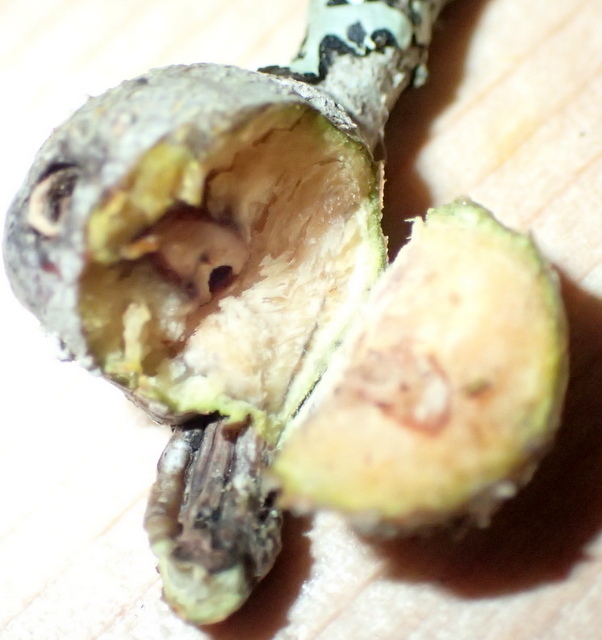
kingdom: Animalia
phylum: Arthropoda
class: Insecta
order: Hymenoptera
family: Cynipidae
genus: Callirhytis
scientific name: Callirhytis
